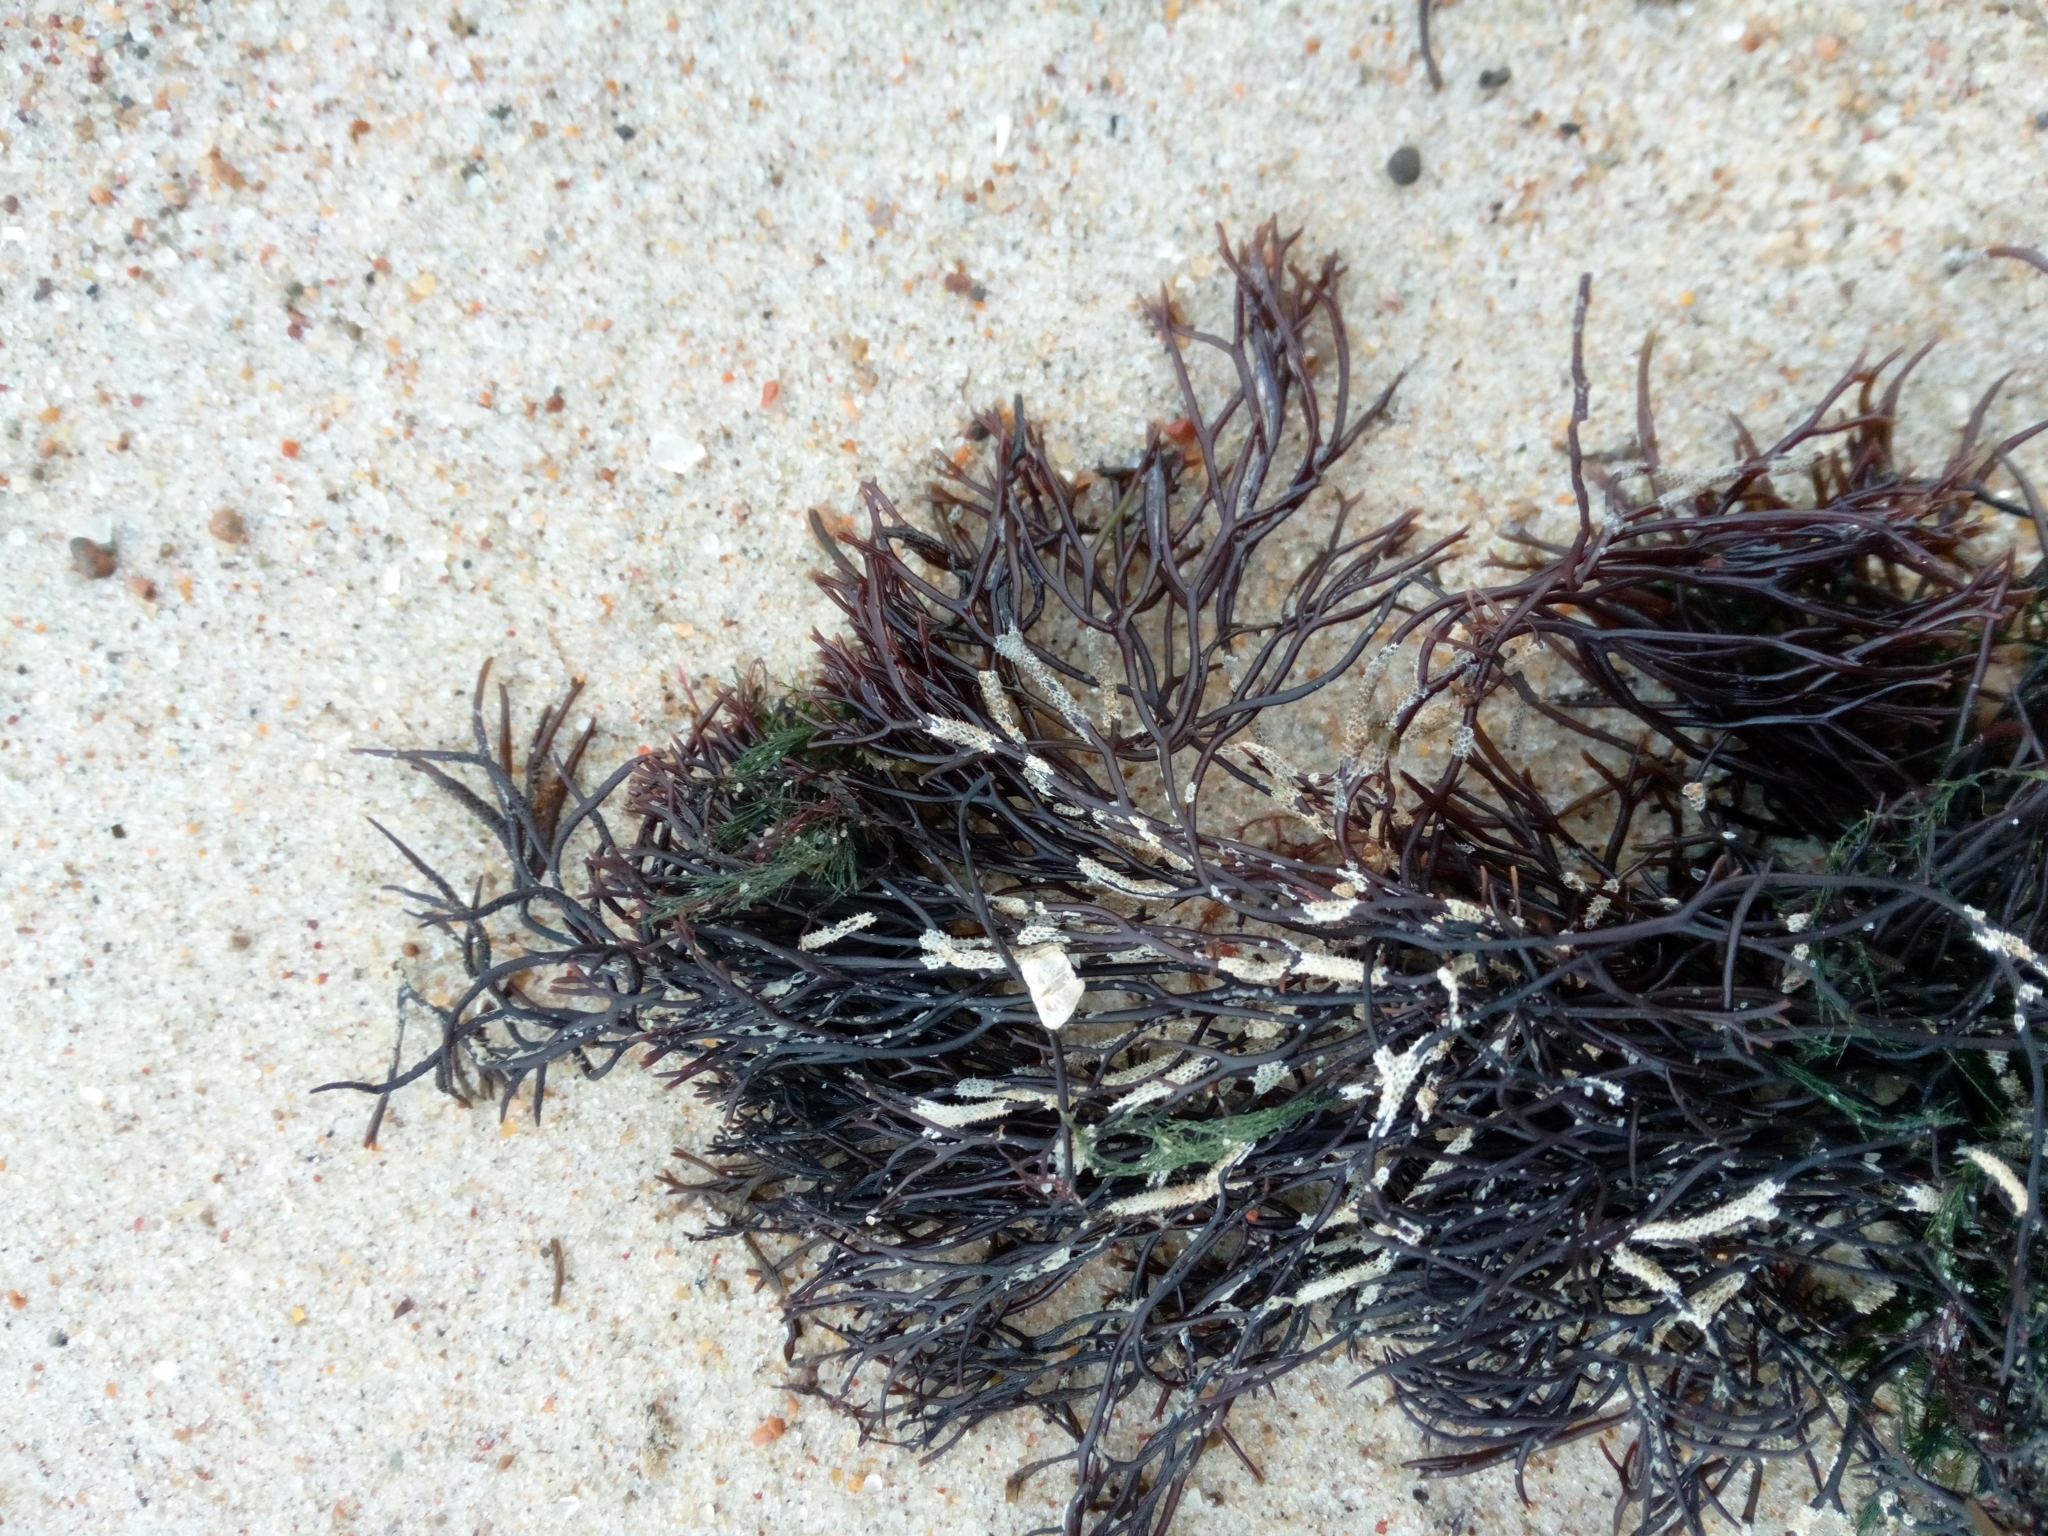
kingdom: Plantae
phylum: Rhodophyta
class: Florideophyceae
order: Gigartinales
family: Furcellariaceae
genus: Furcellaria
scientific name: Furcellaria lumbricalis
